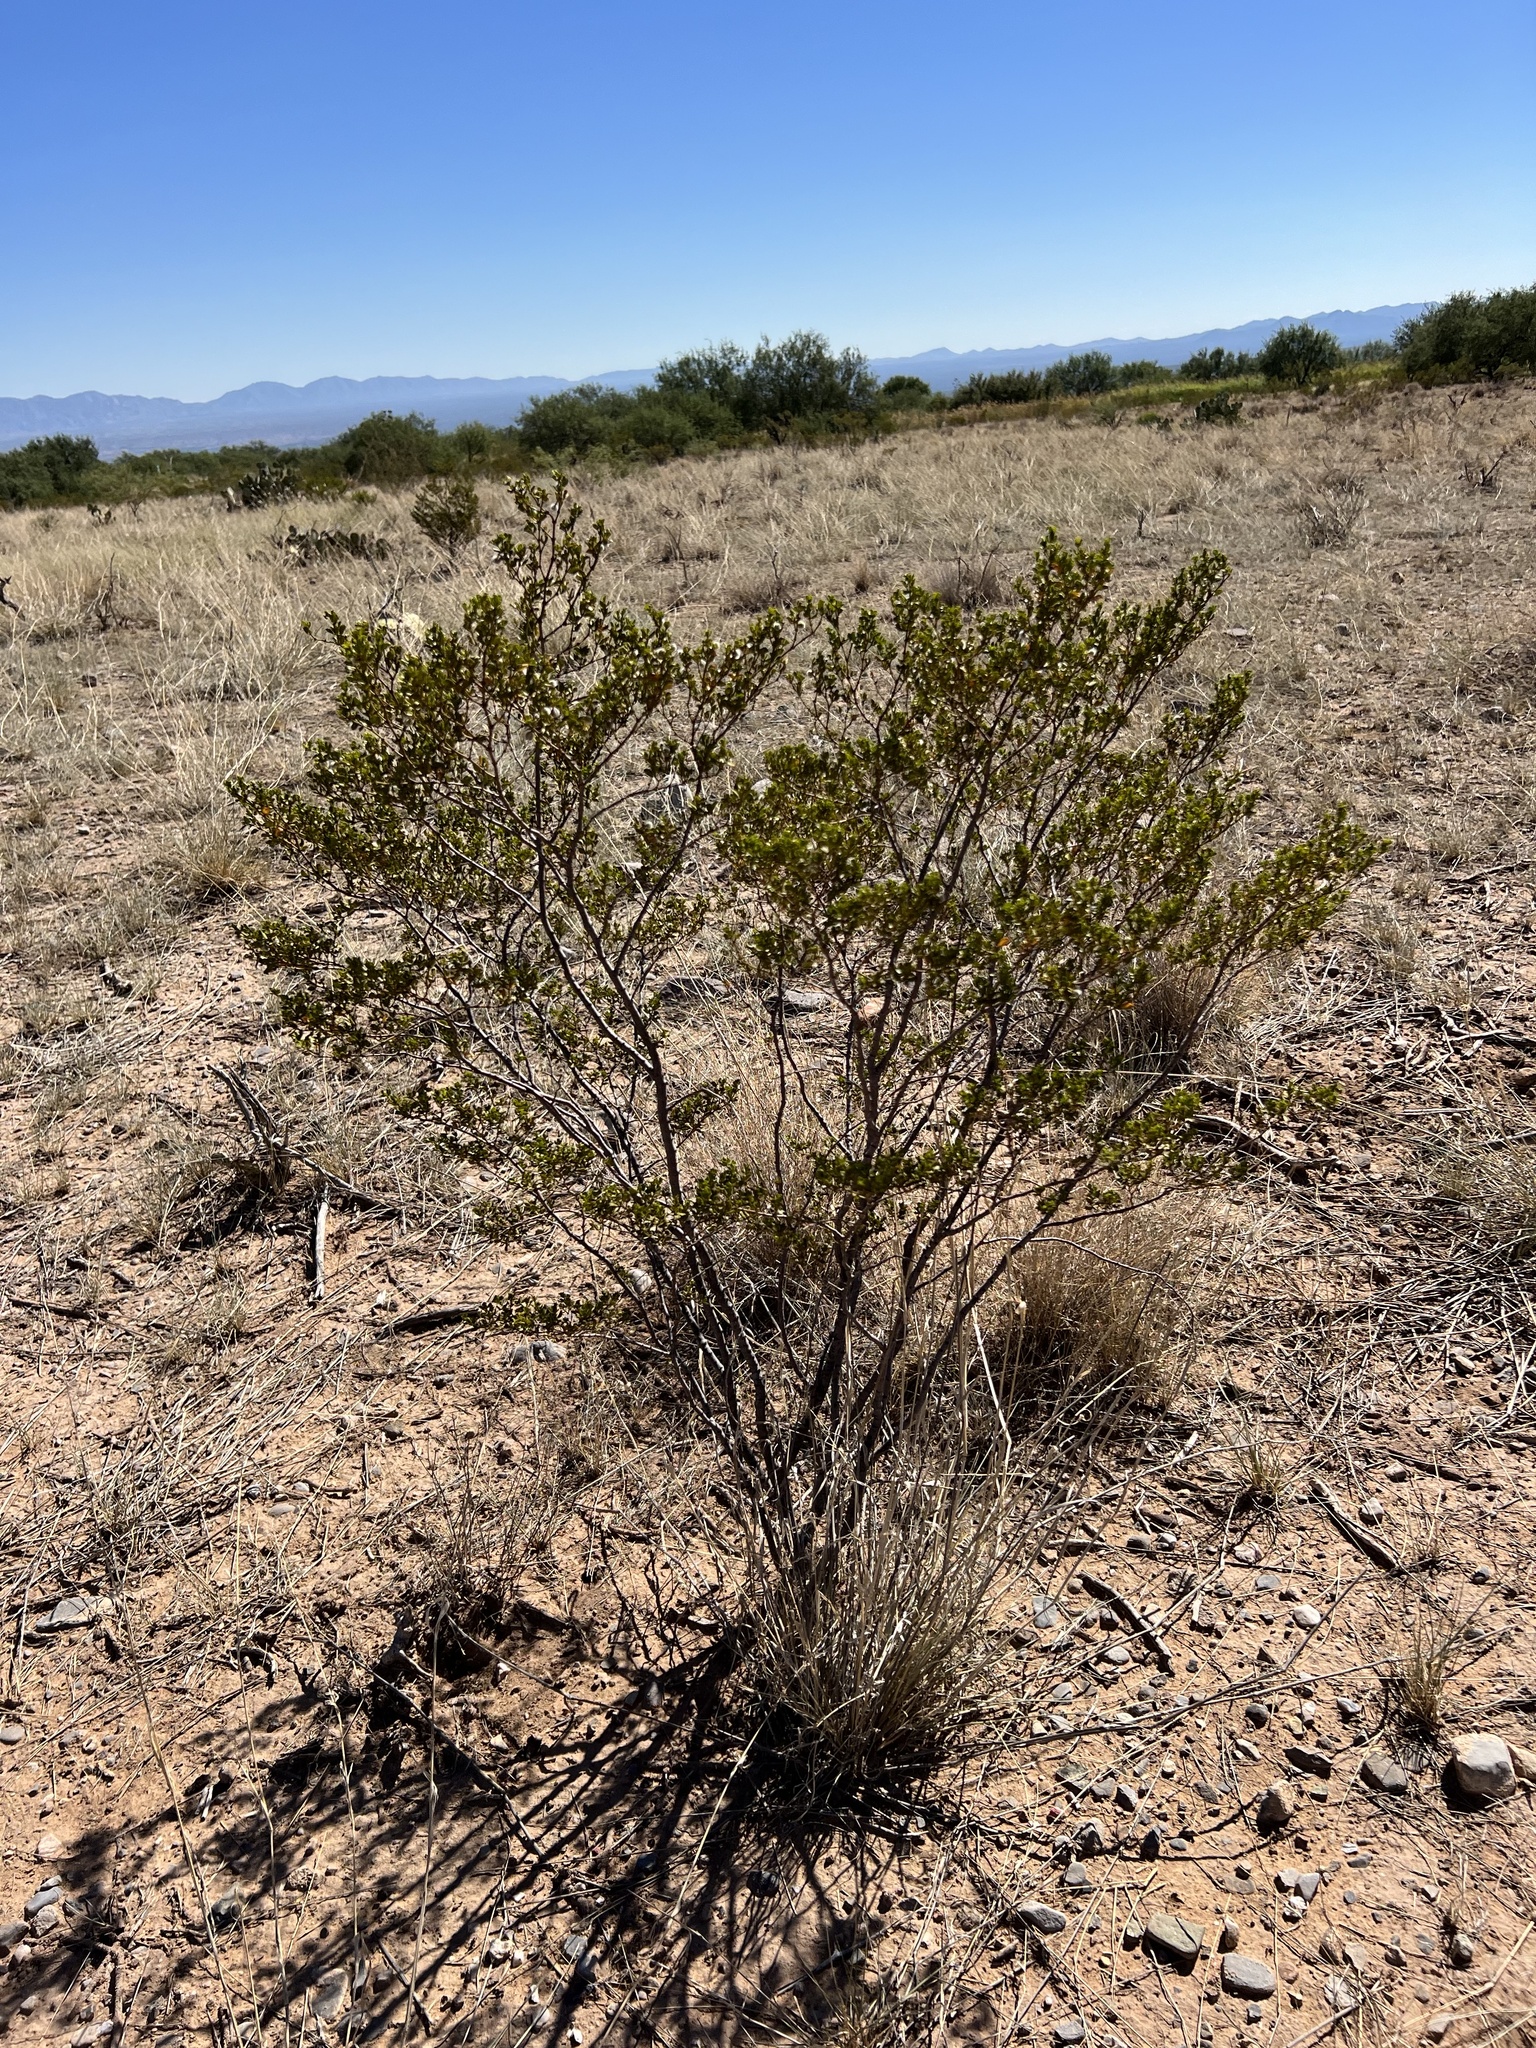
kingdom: Plantae
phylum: Tracheophyta
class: Magnoliopsida
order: Zygophyllales
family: Zygophyllaceae
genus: Larrea
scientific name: Larrea tridentata
